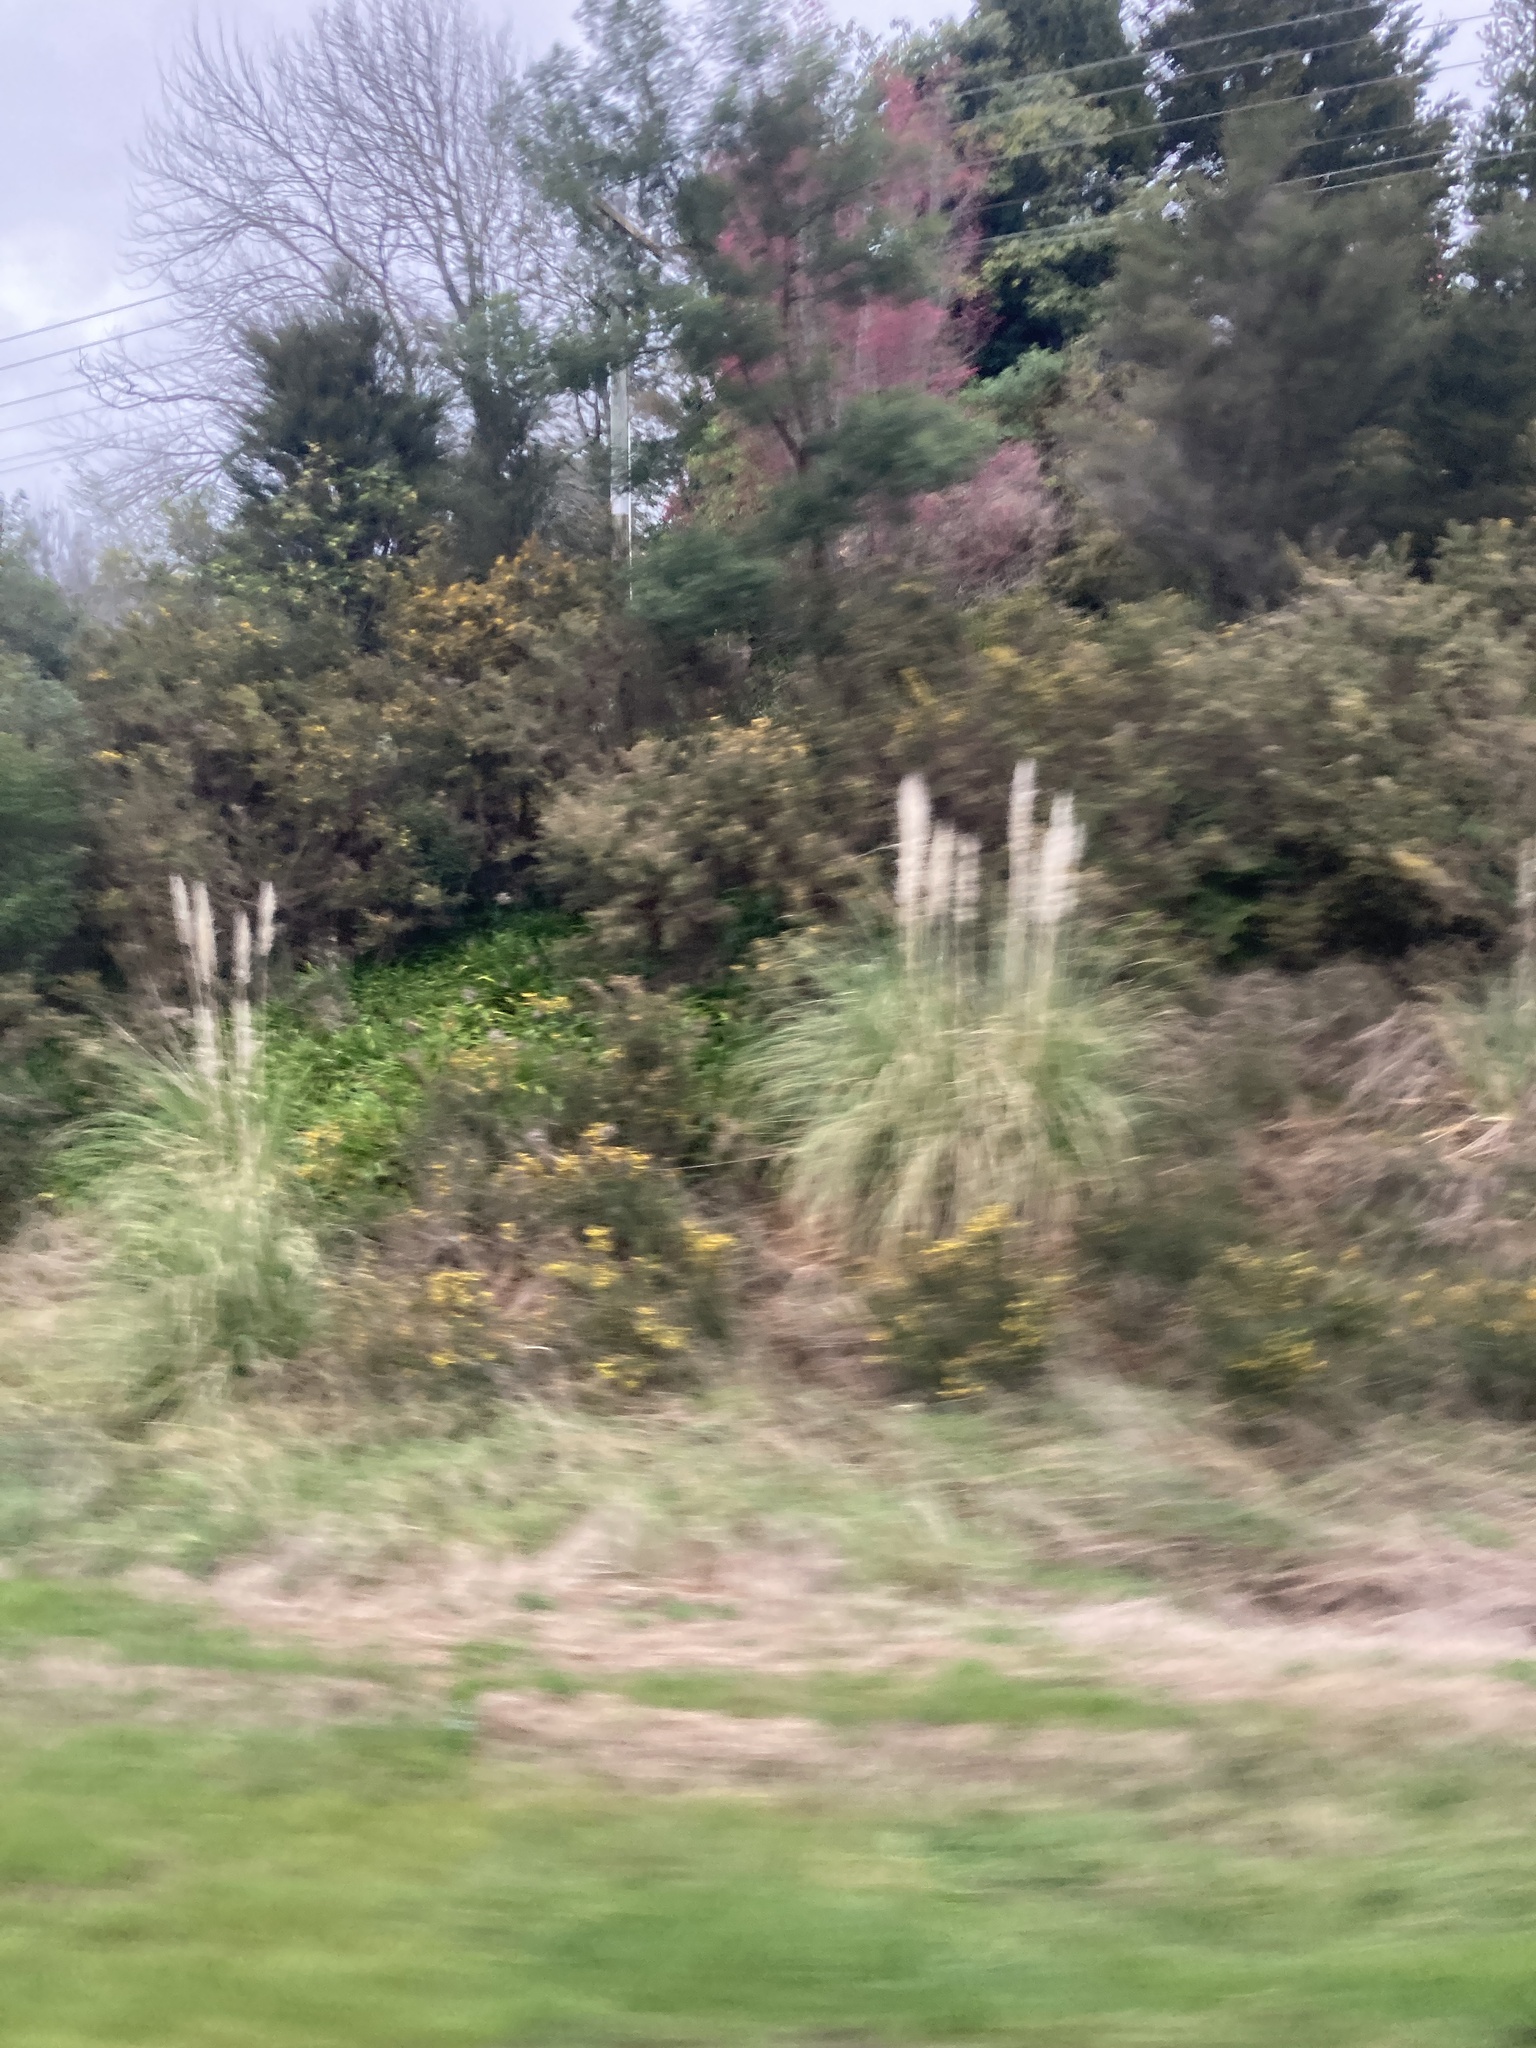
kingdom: Plantae
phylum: Tracheophyta
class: Liliopsida
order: Poales
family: Poaceae
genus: Cortaderia
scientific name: Cortaderia selloana
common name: Uruguayan pampas grass
